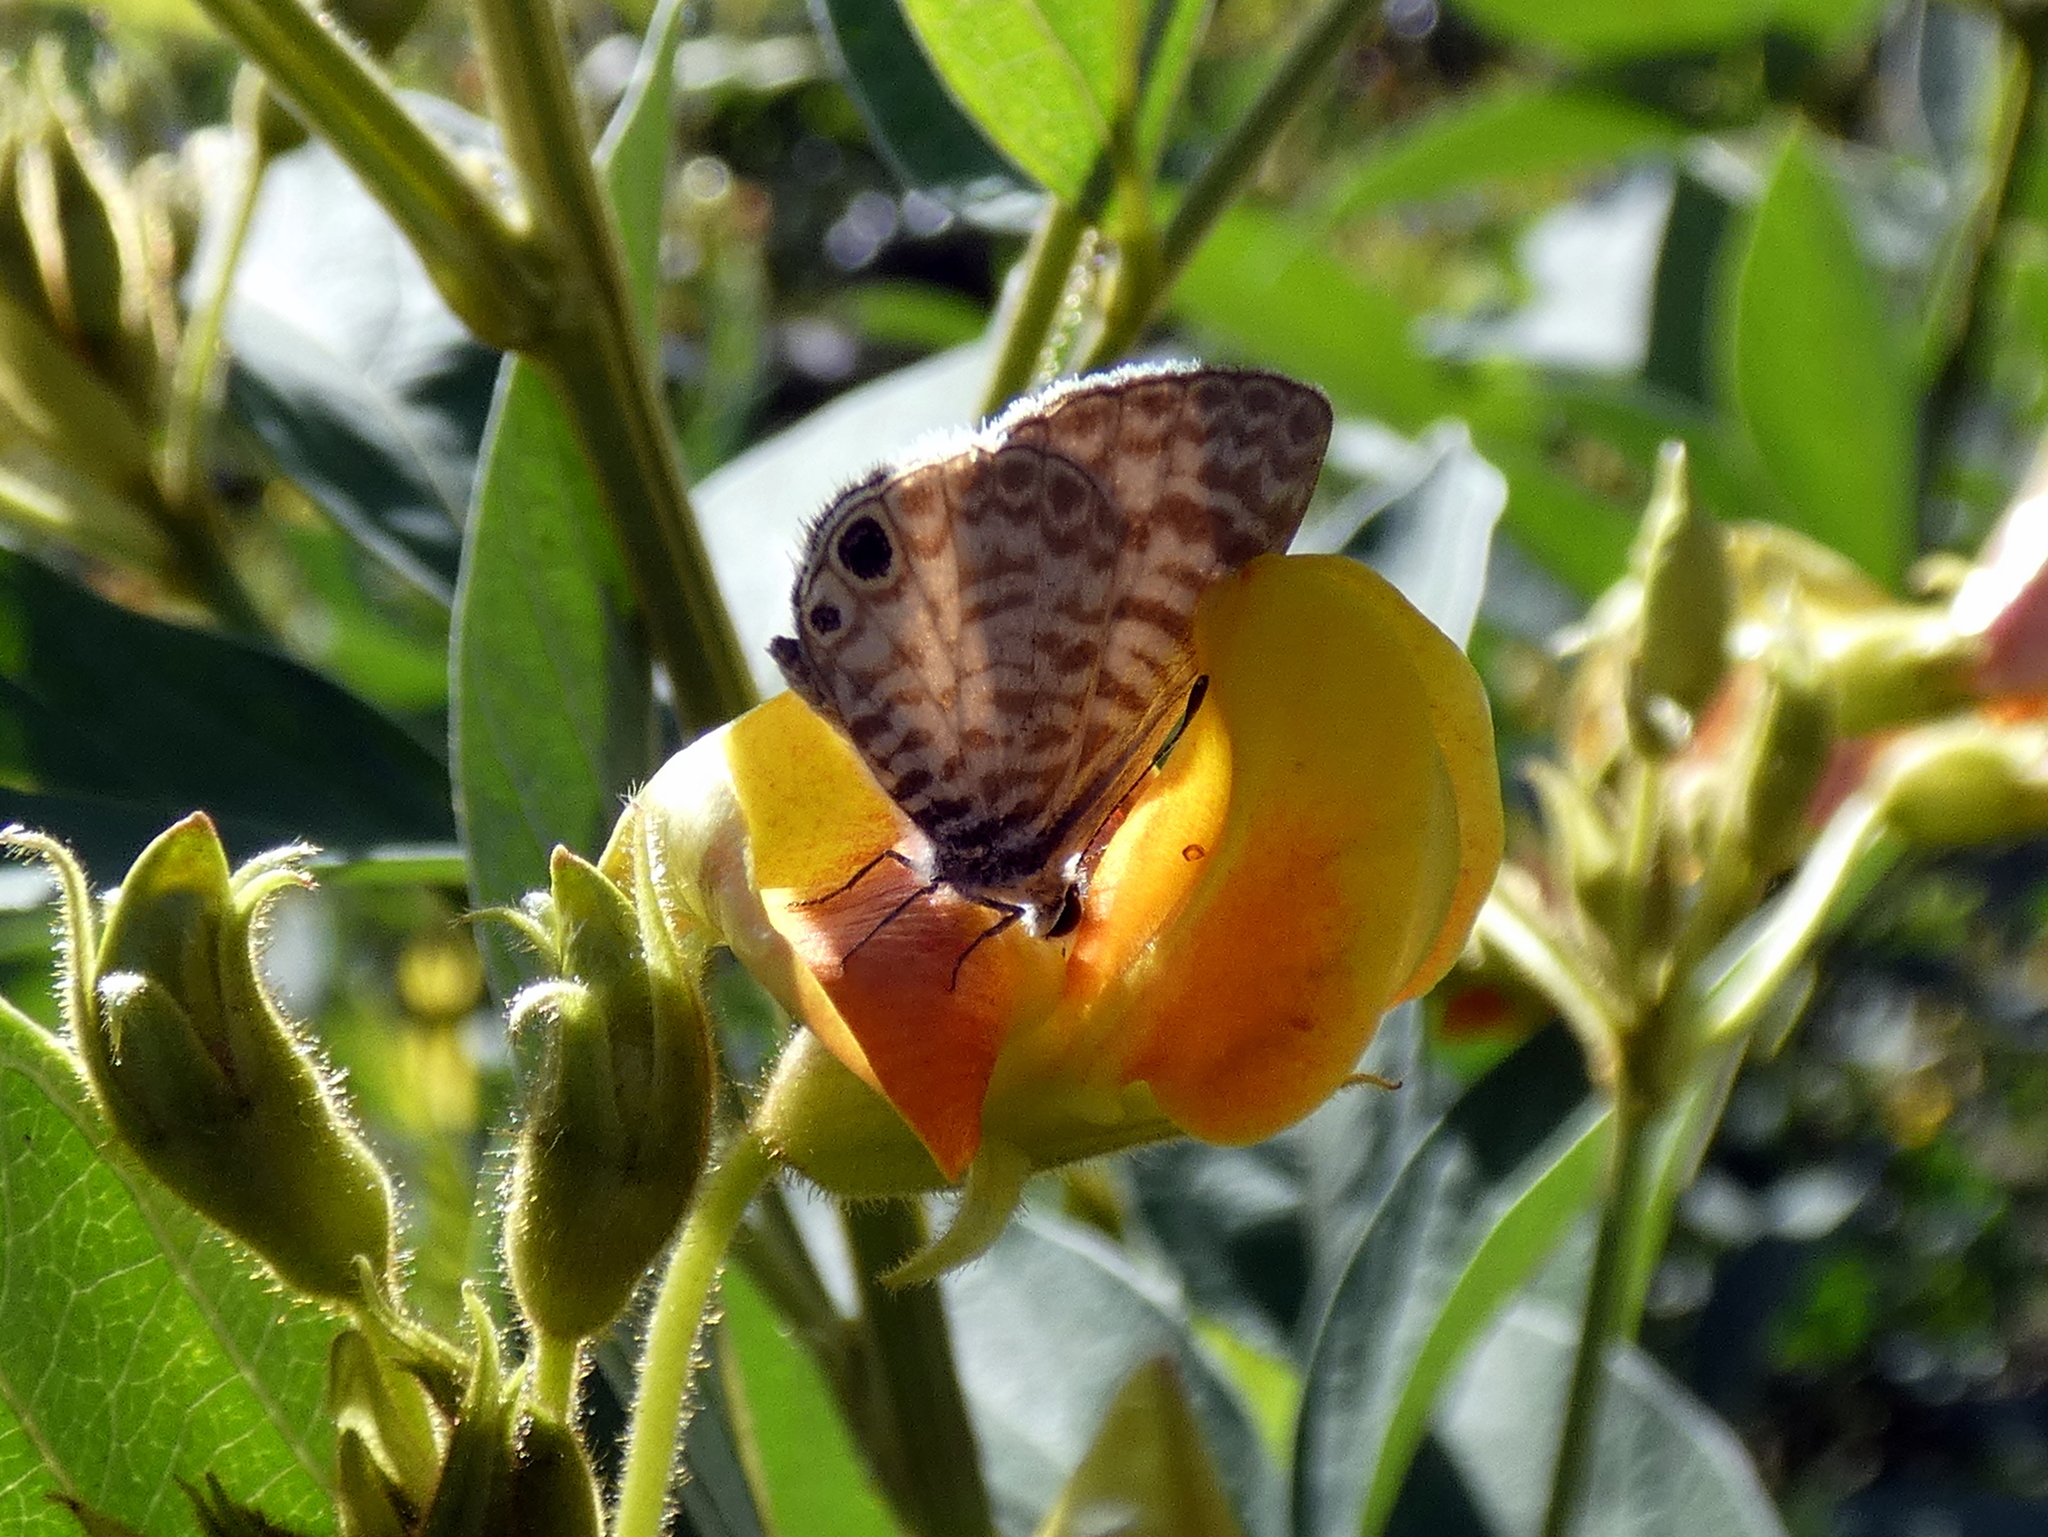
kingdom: Animalia
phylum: Arthropoda
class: Insecta
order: Lepidoptera
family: Lycaenidae
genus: Leptotes
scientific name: Leptotes cassius
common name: Cassius blue
